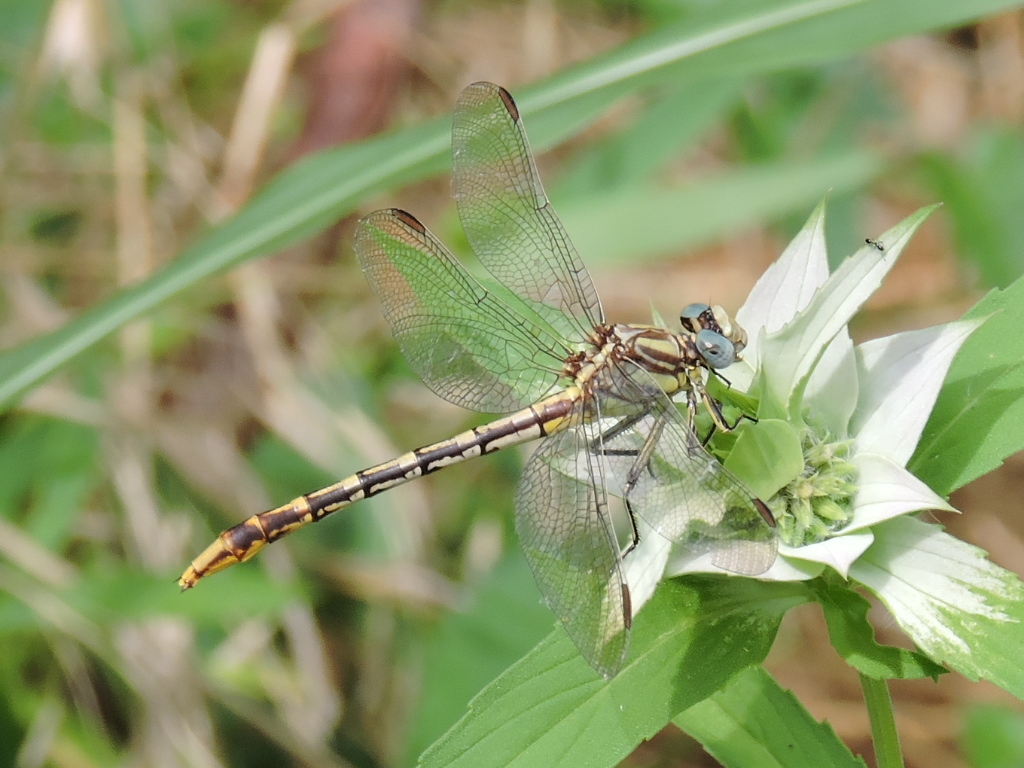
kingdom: Animalia
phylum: Arthropoda
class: Insecta
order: Odonata
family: Gomphidae
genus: Phanogomphus
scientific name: Phanogomphus militaris
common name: Sulphur-tipped clubtail
